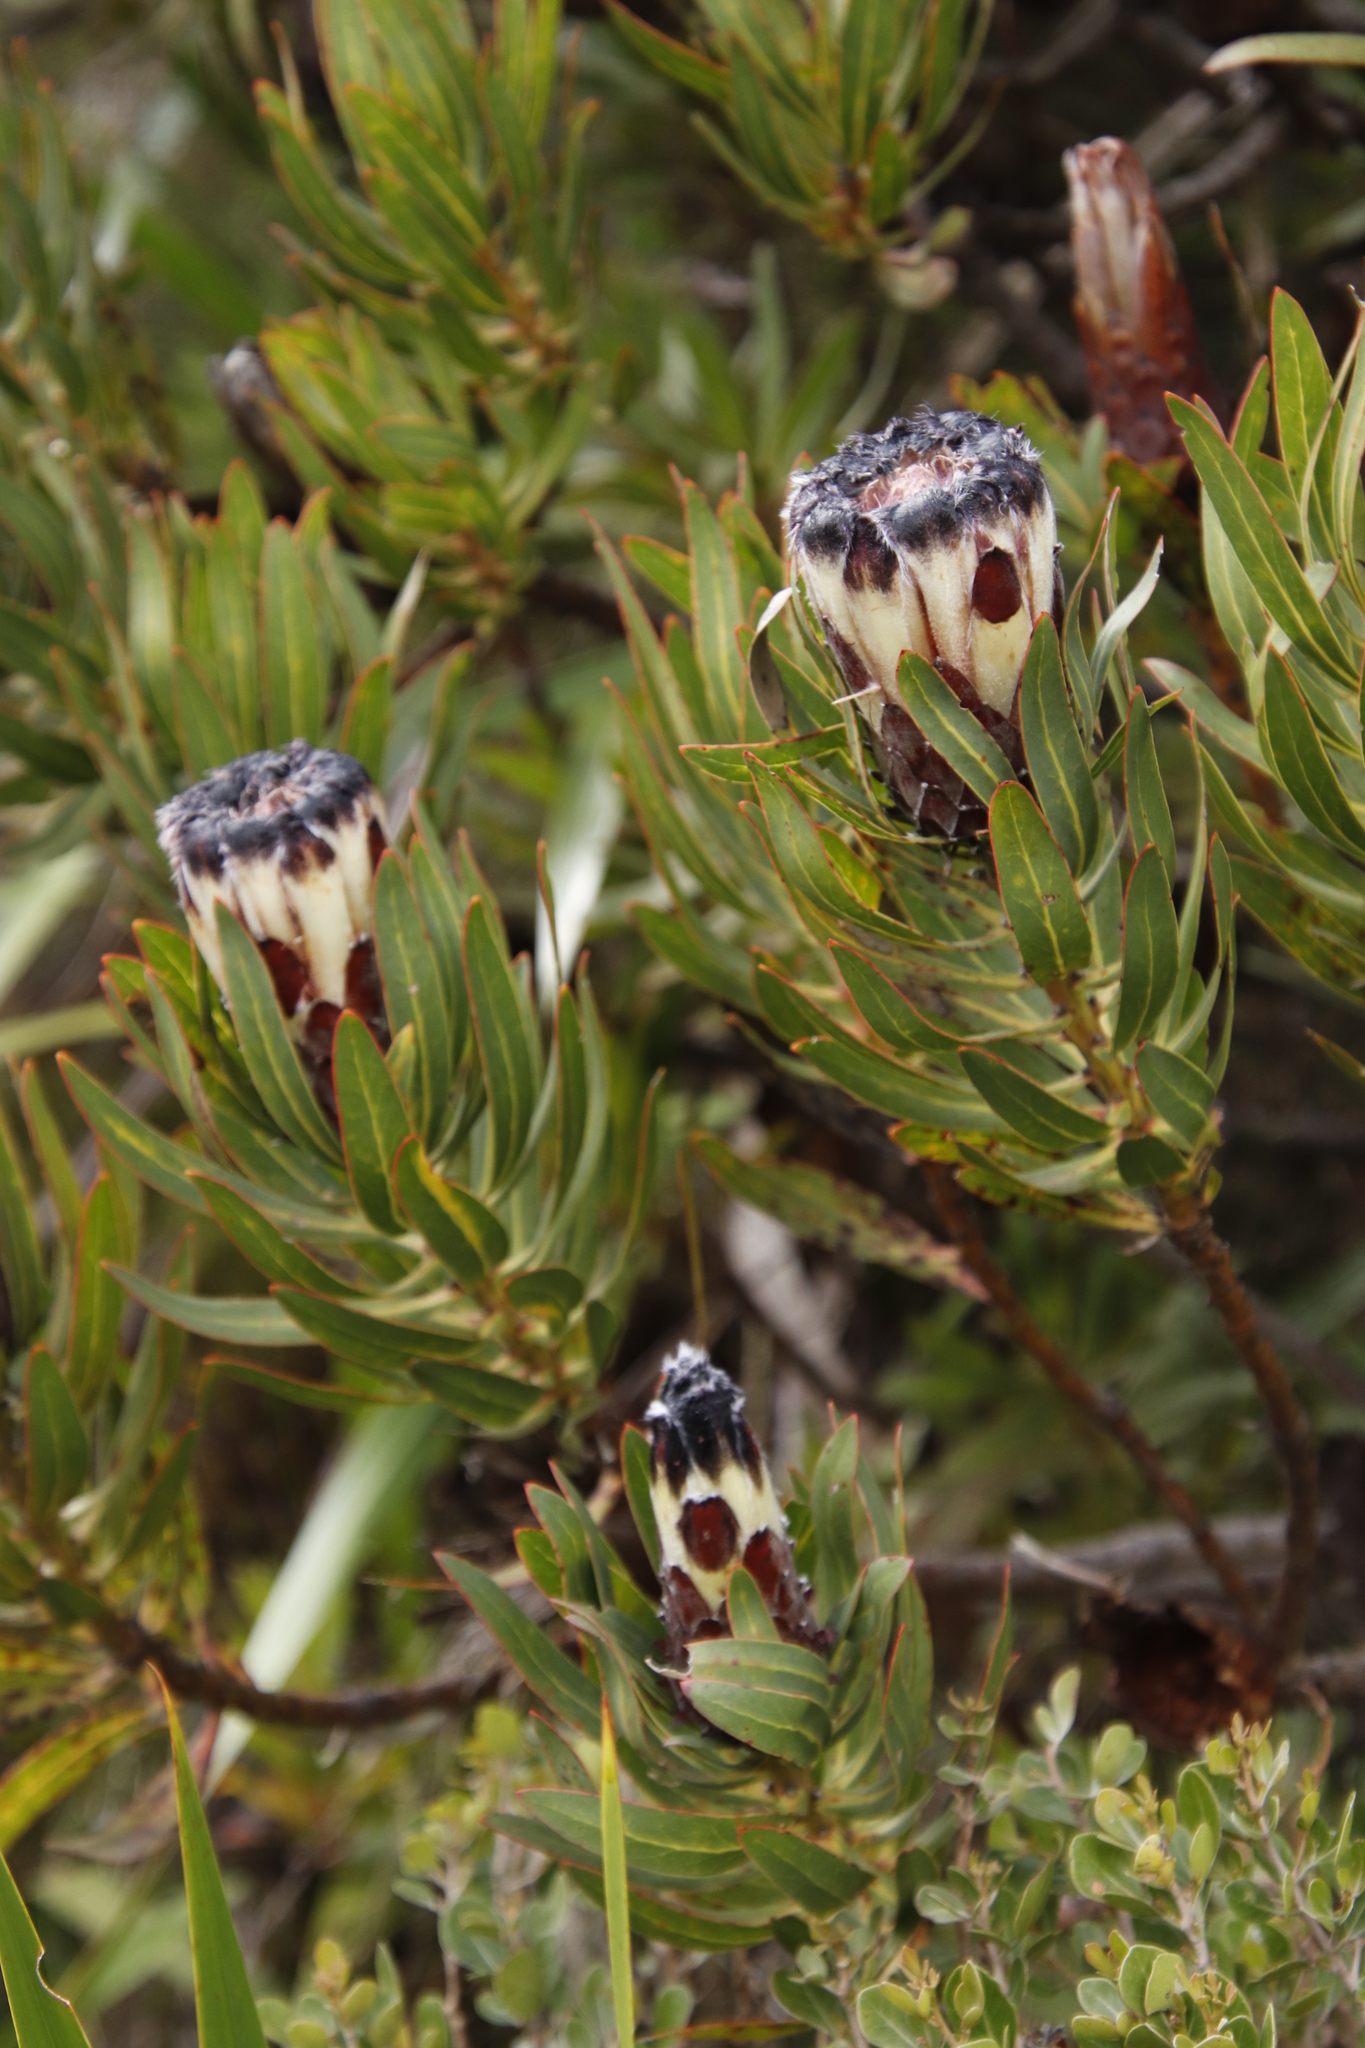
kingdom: Plantae
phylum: Tracheophyta
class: Magnoliopsida
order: Proteales
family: Proteaceae
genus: Protea
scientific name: Protea lepidocarpodendron
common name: Black-bearded protea
